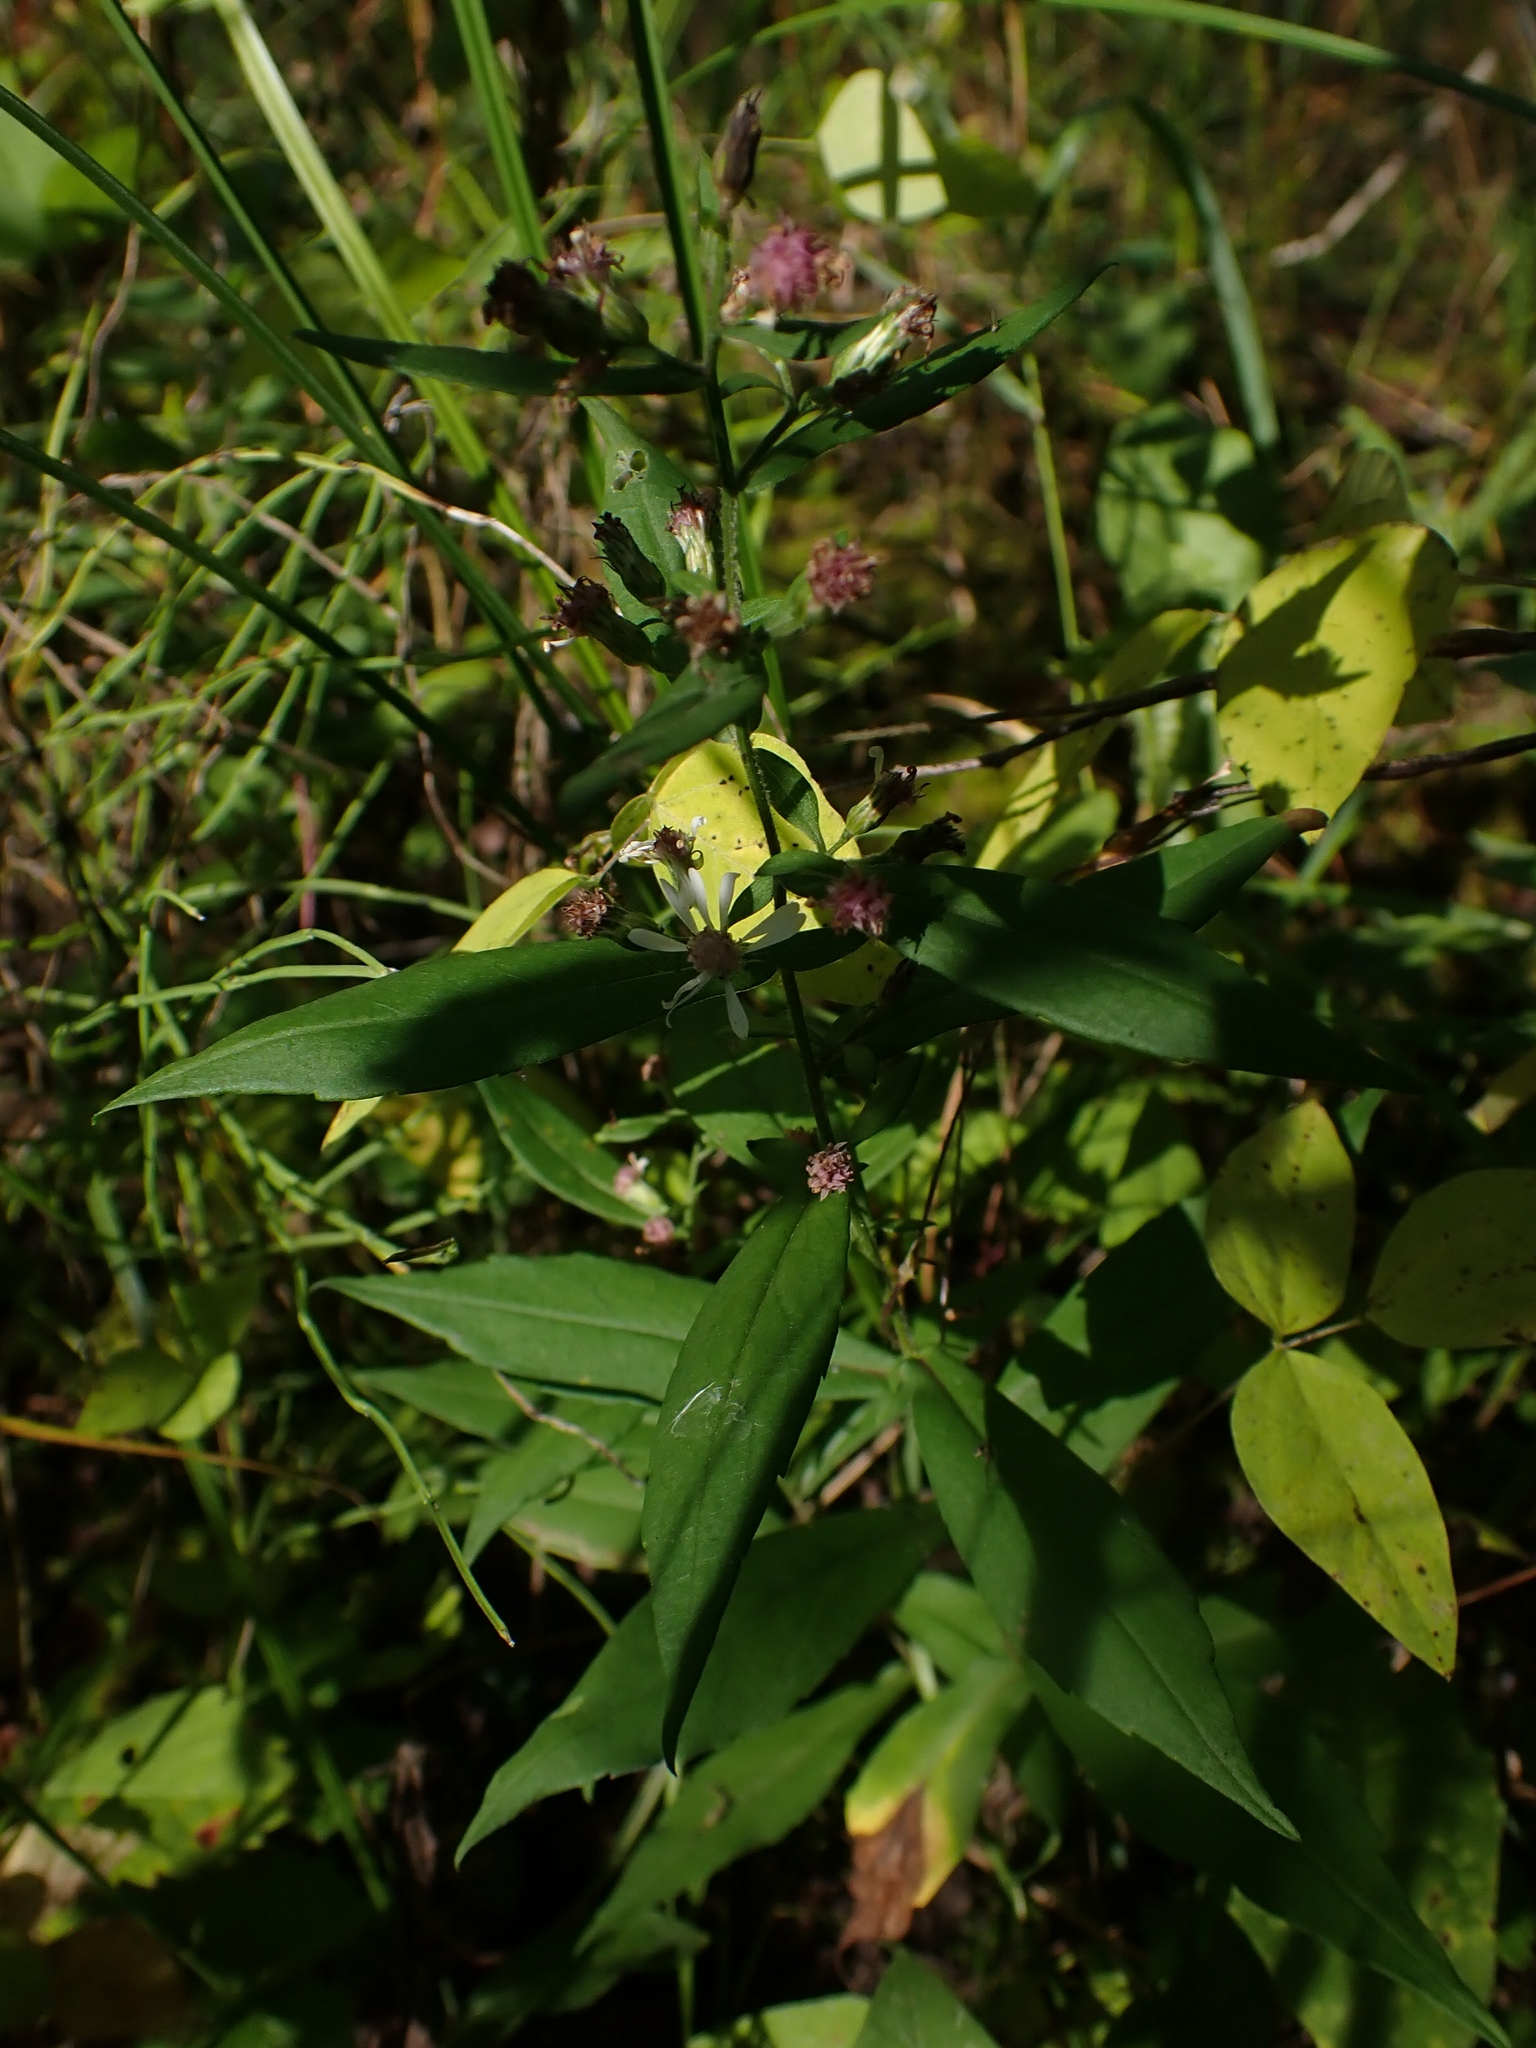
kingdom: Plantae
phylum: Tracheophyta
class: Magnoliopsida
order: Asterales
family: Asteraceae
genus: Symphyotrichum
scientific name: Symphyotrichum lateriflorum
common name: Calico aster
